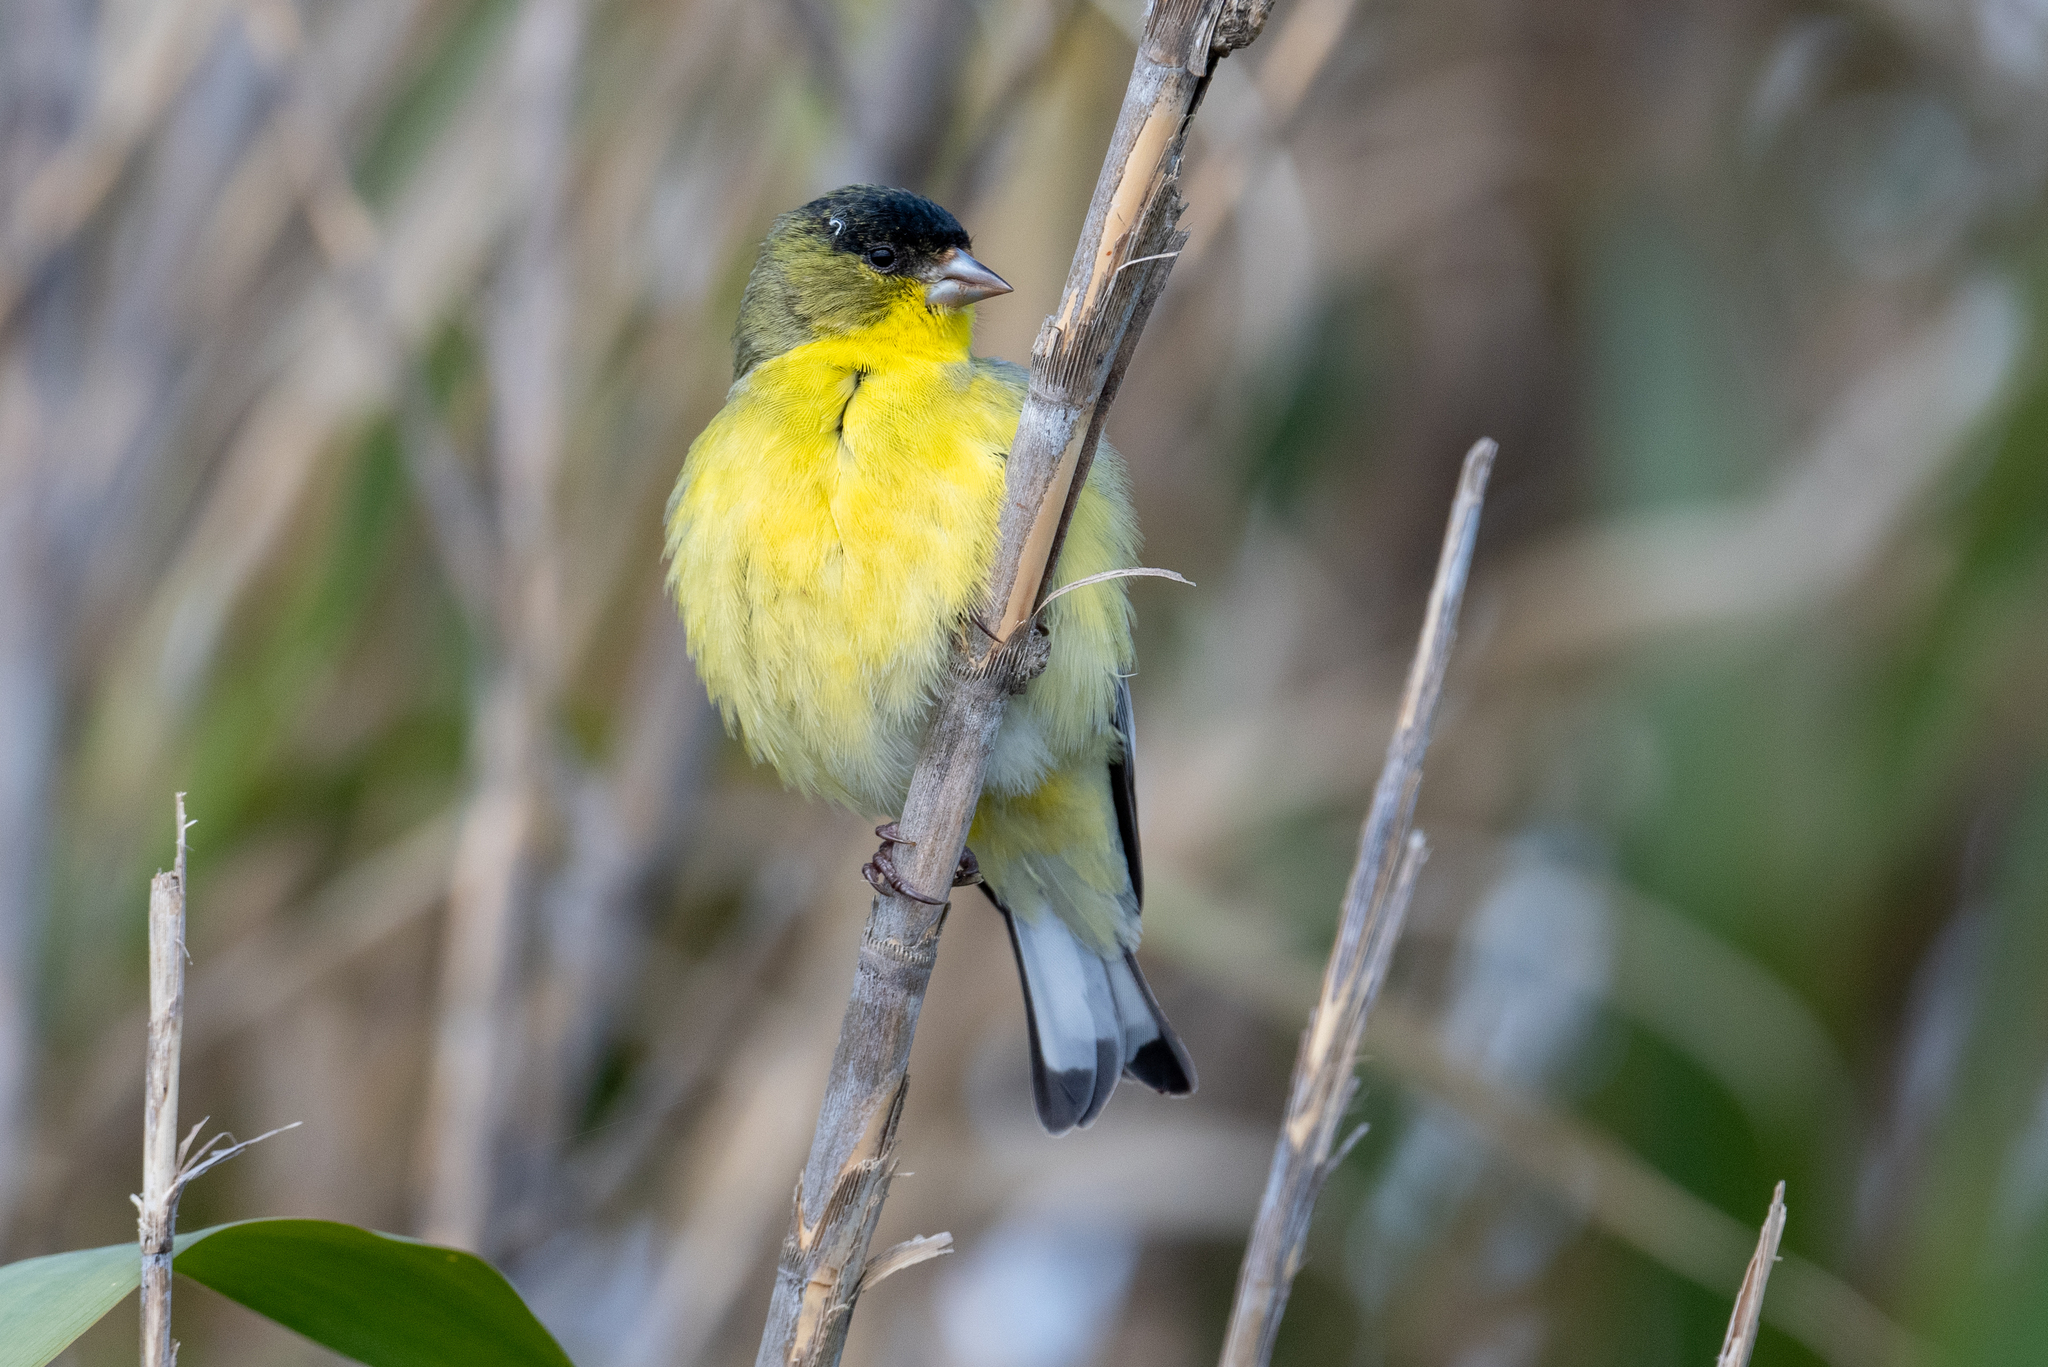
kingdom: Animalia
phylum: Chordata
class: Aves
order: Passeriformes
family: Fringillidae
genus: Spinus
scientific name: Spinus psaltria
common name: Lesser goldfinch
